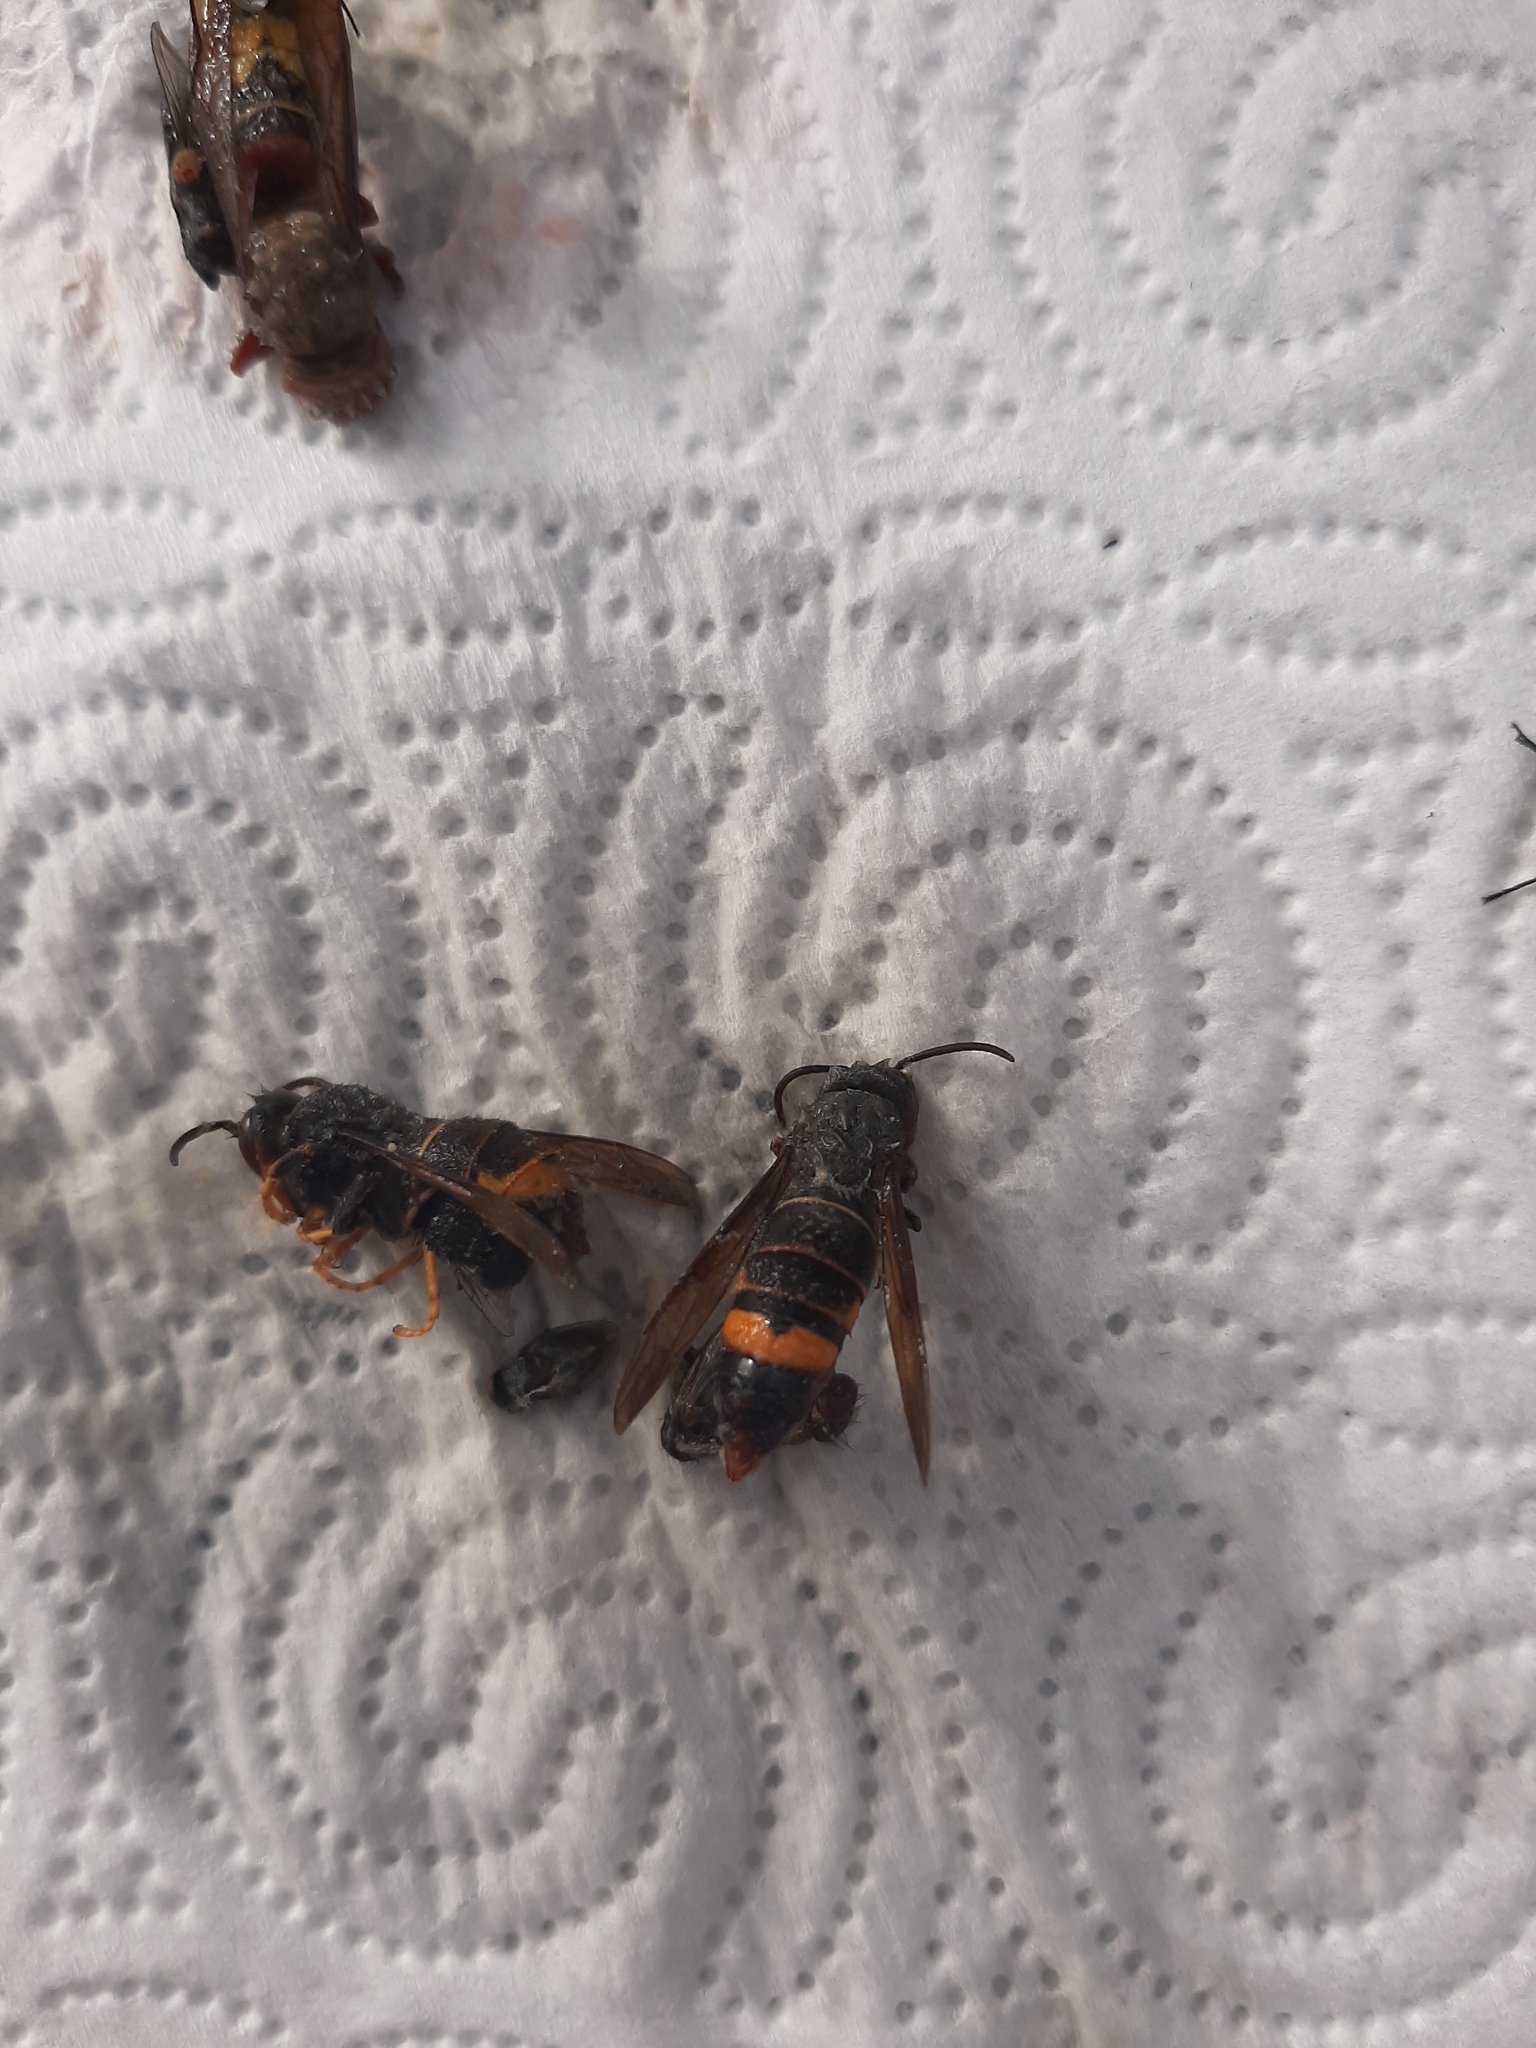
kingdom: Animalia
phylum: Arthropoda
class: Insecta
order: Hymenoptera
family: Vespidae
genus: Vespa
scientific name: Vespa velutina
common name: Asian hornet
